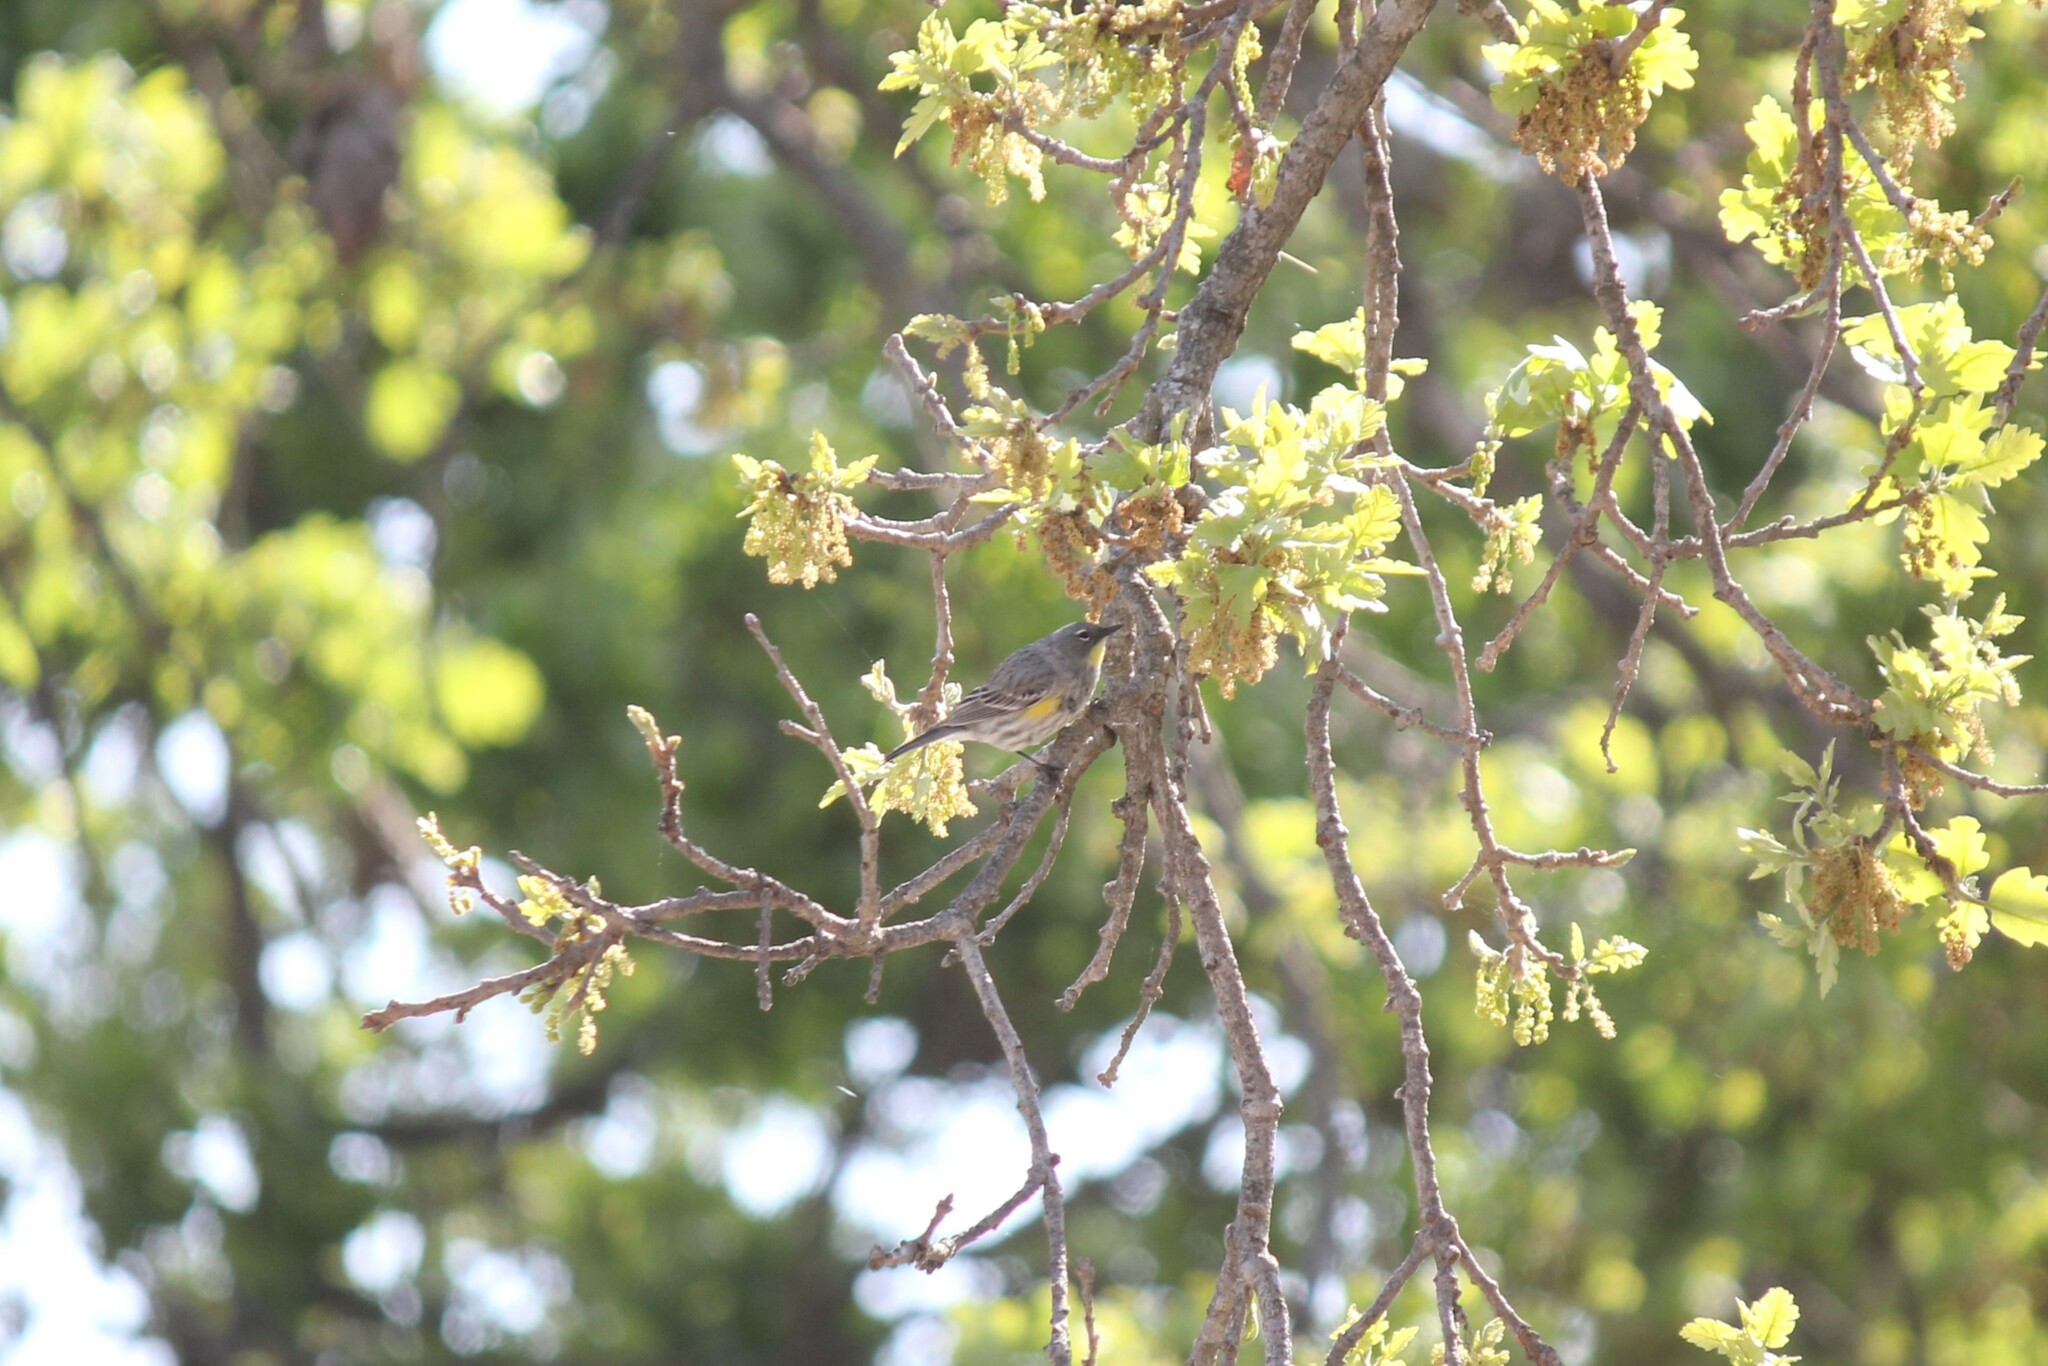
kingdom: Animalia
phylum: Chordata
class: Aves
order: Passeriformes
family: Parulidae
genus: Setophaga
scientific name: Setophaga coronata
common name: Myrtle warbler
